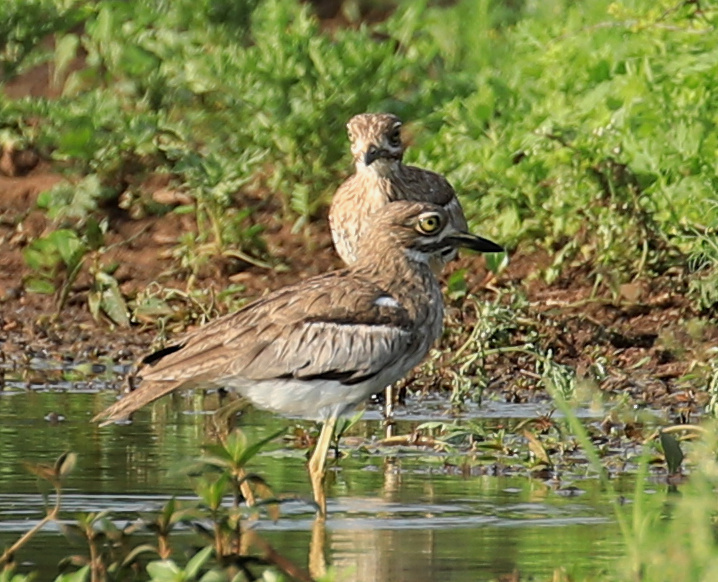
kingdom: Animalia
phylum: Chordata
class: Aves
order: Charadriiformes
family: Burhinidae
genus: Burhinus
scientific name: Burhinus vermiculatus
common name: Water thick-knee
